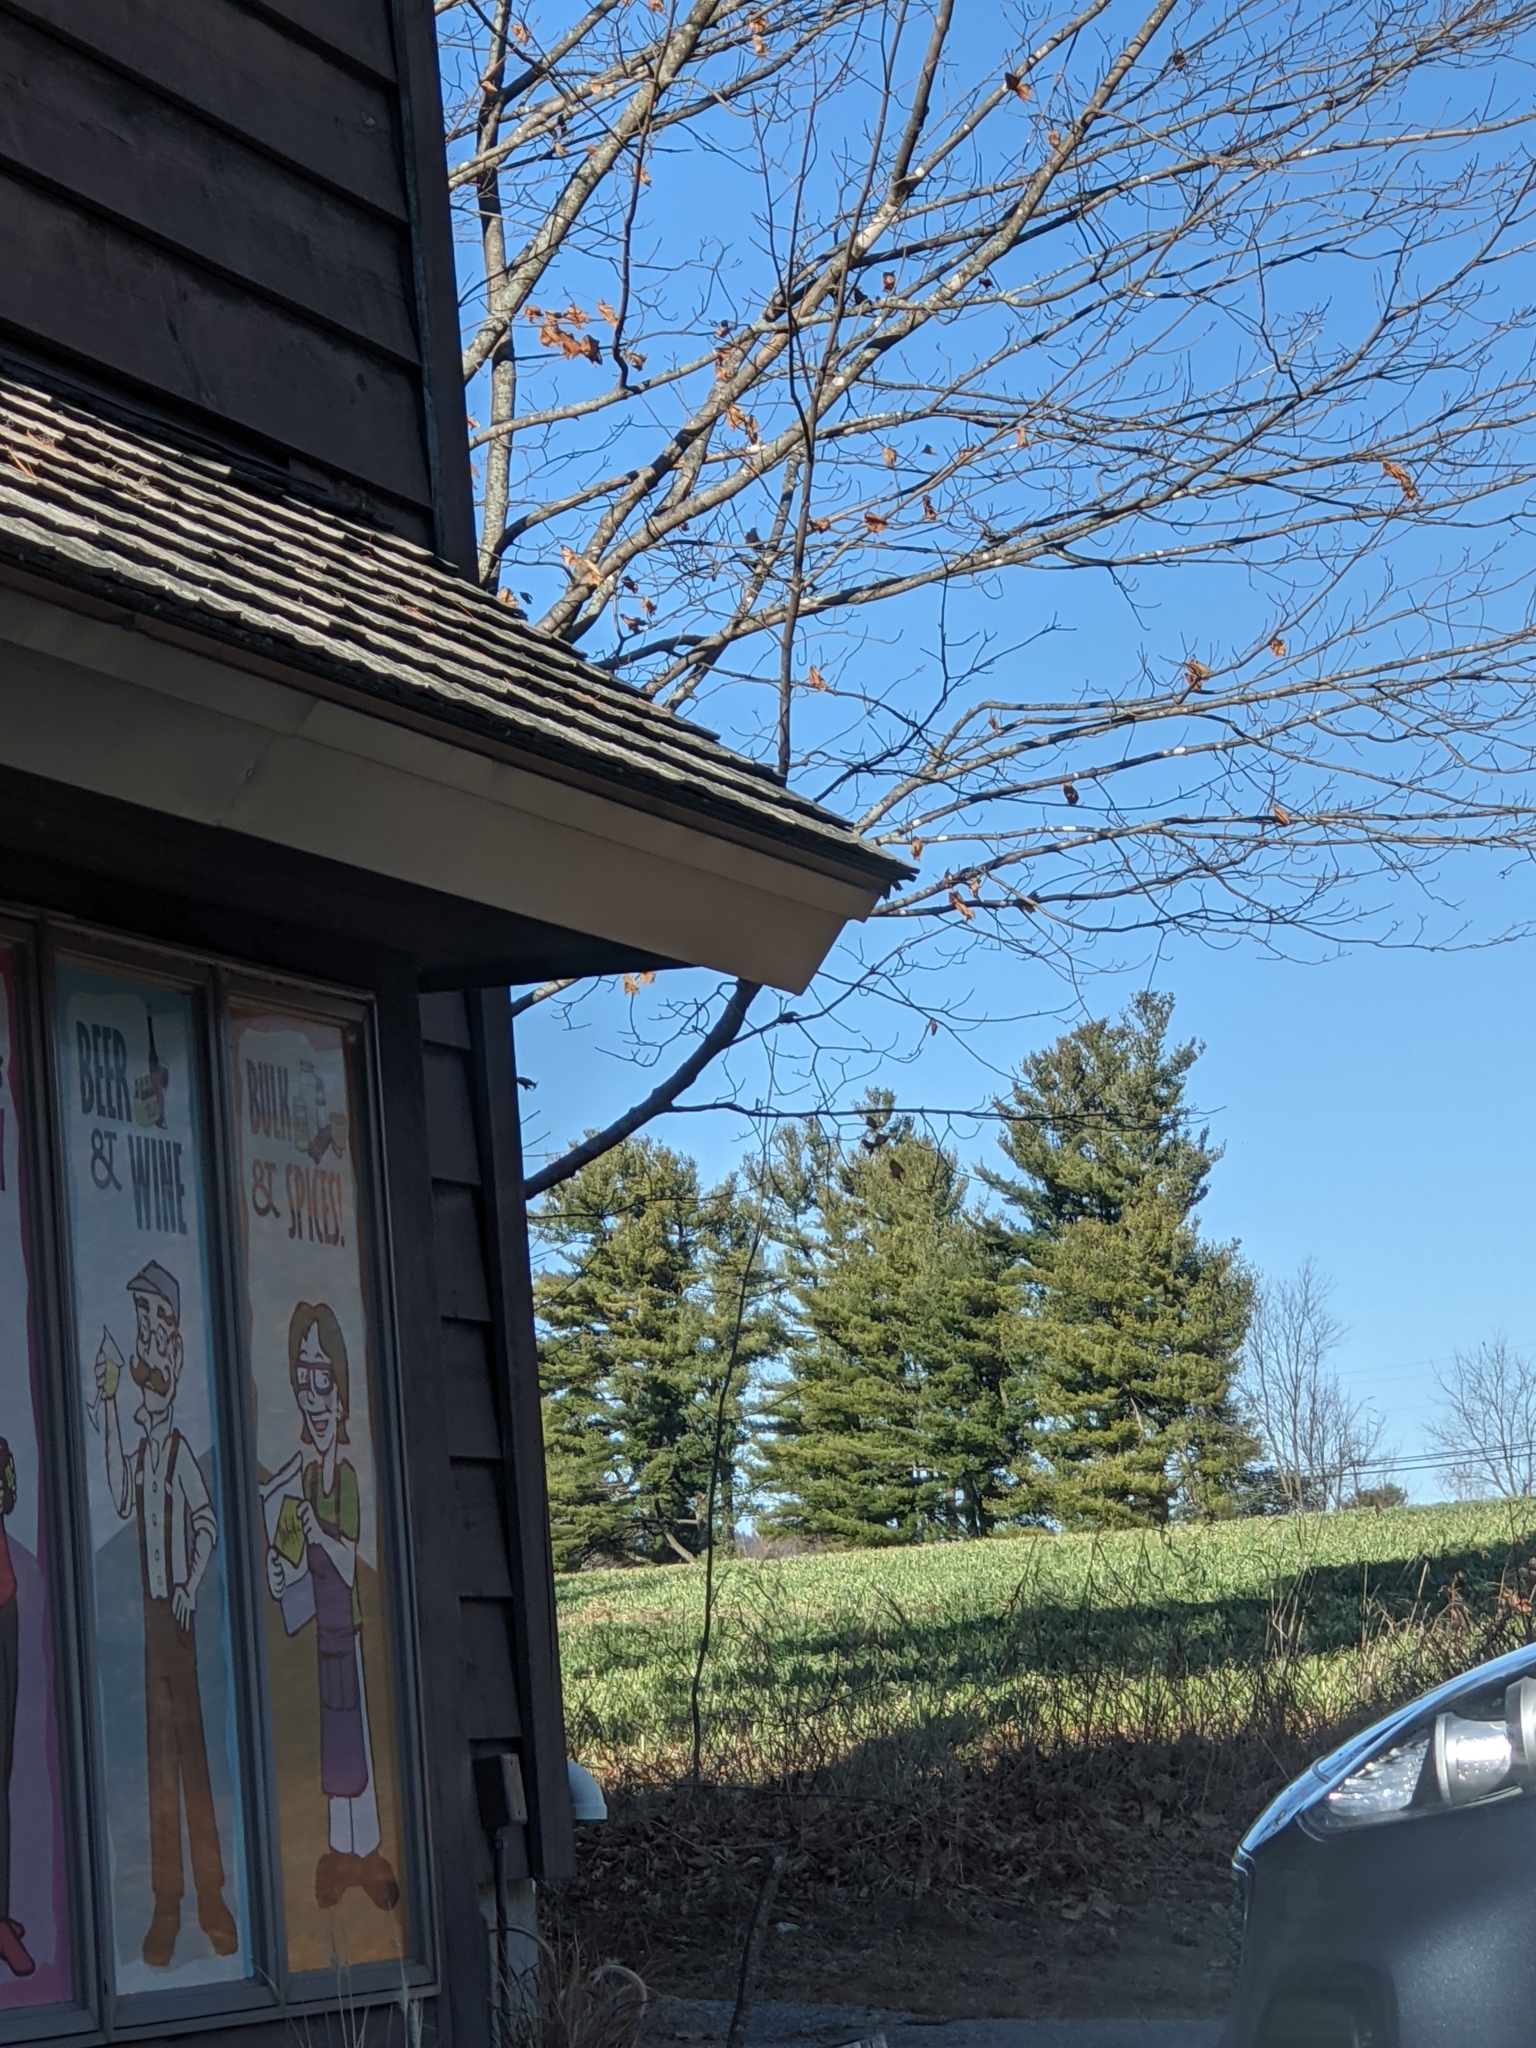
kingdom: Plantae
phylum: Tracheophyta
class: Pinopsida
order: Pinales
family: Pinaceae
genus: Pinus
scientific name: Pinus strobus
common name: Weymouth pine
